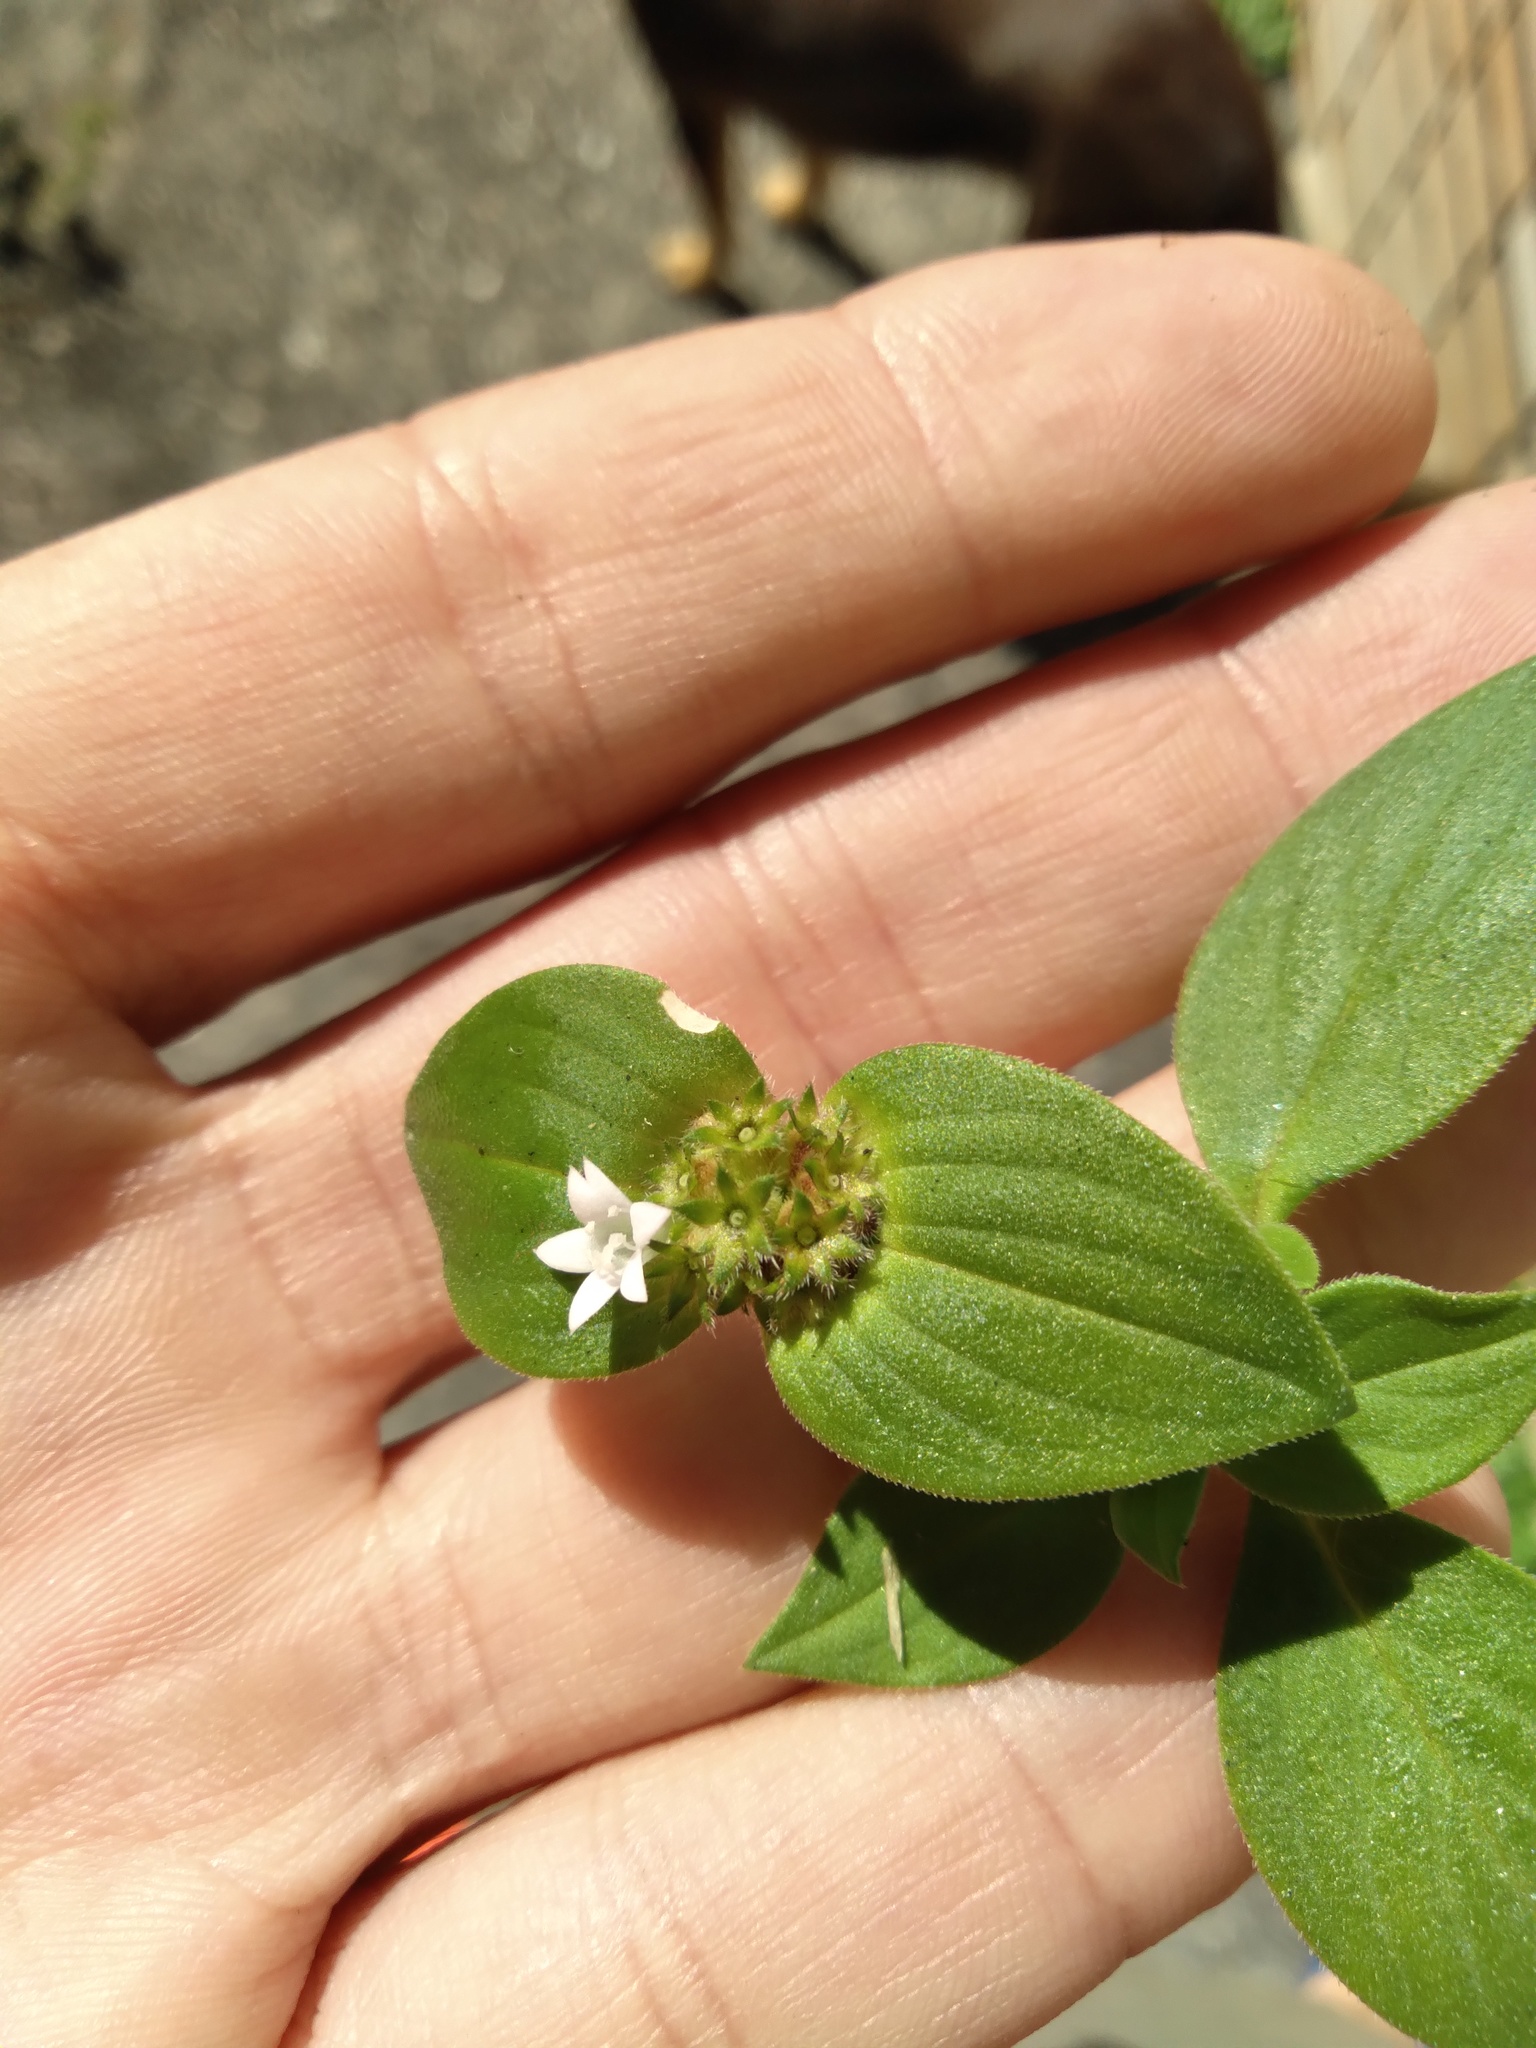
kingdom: Plantae
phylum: Tracheophyta
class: Magnoliopsida
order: Gentianales
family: Rubiaceae
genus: Richardia
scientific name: Richardia brasiliensis
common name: Tropical mexican clover
